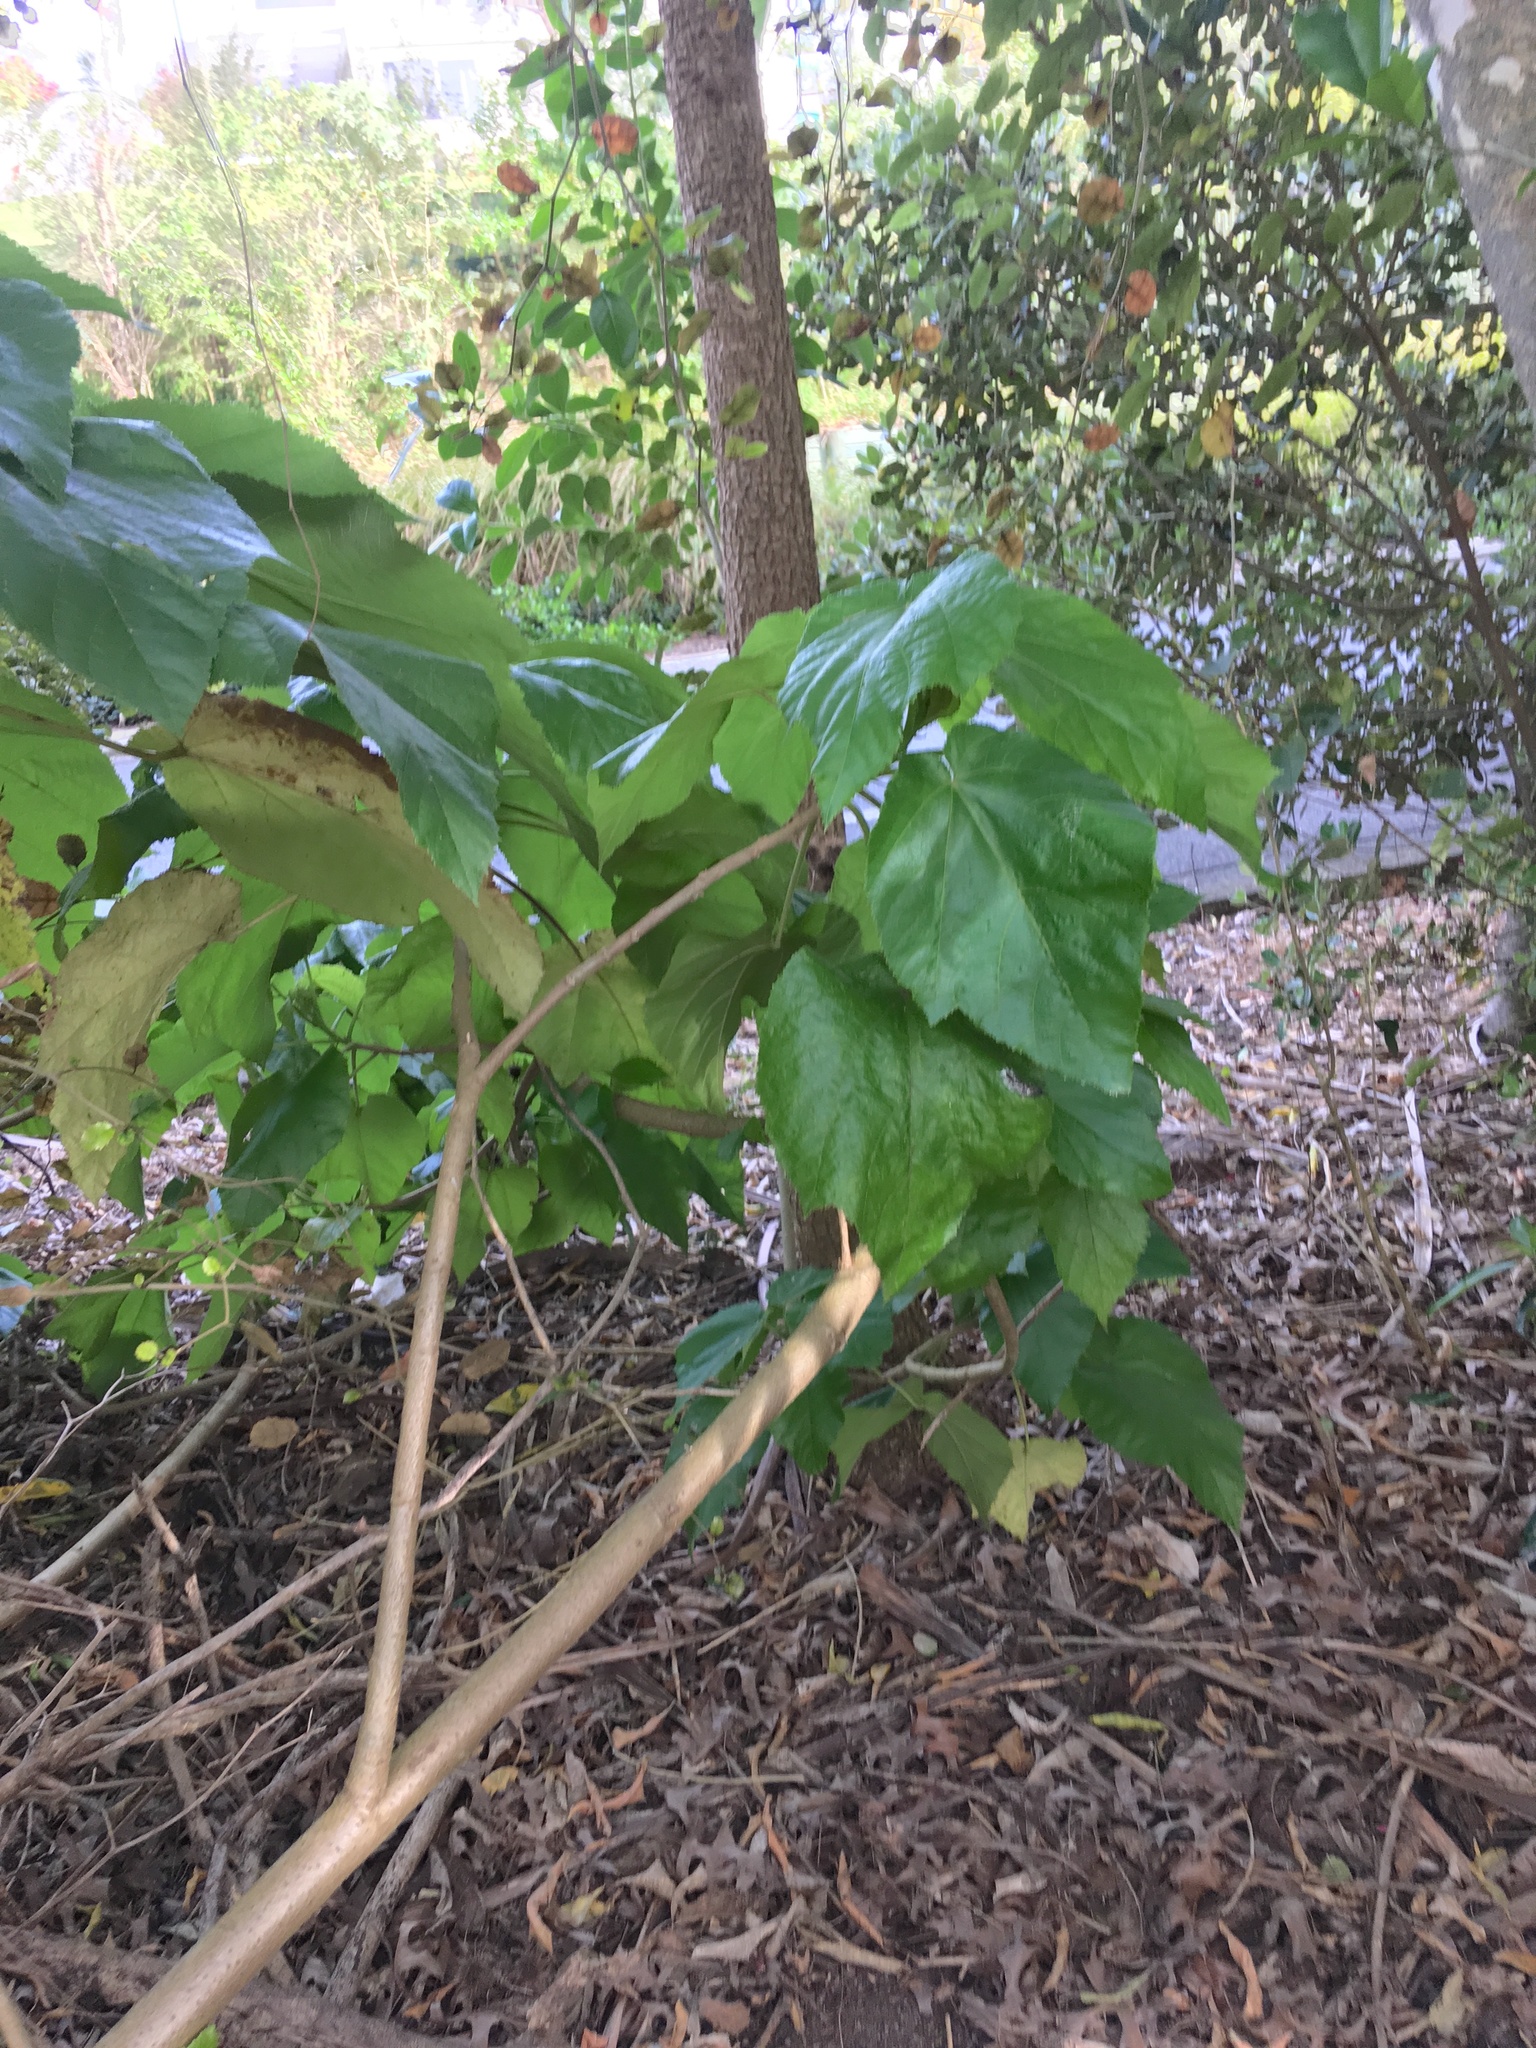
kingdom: Plantae
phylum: Tracheophyta
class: Magnoliopsida
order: Malvales
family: Malvaceae
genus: Entelea
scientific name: Entelea arborescens
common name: New zealand-mulberry
